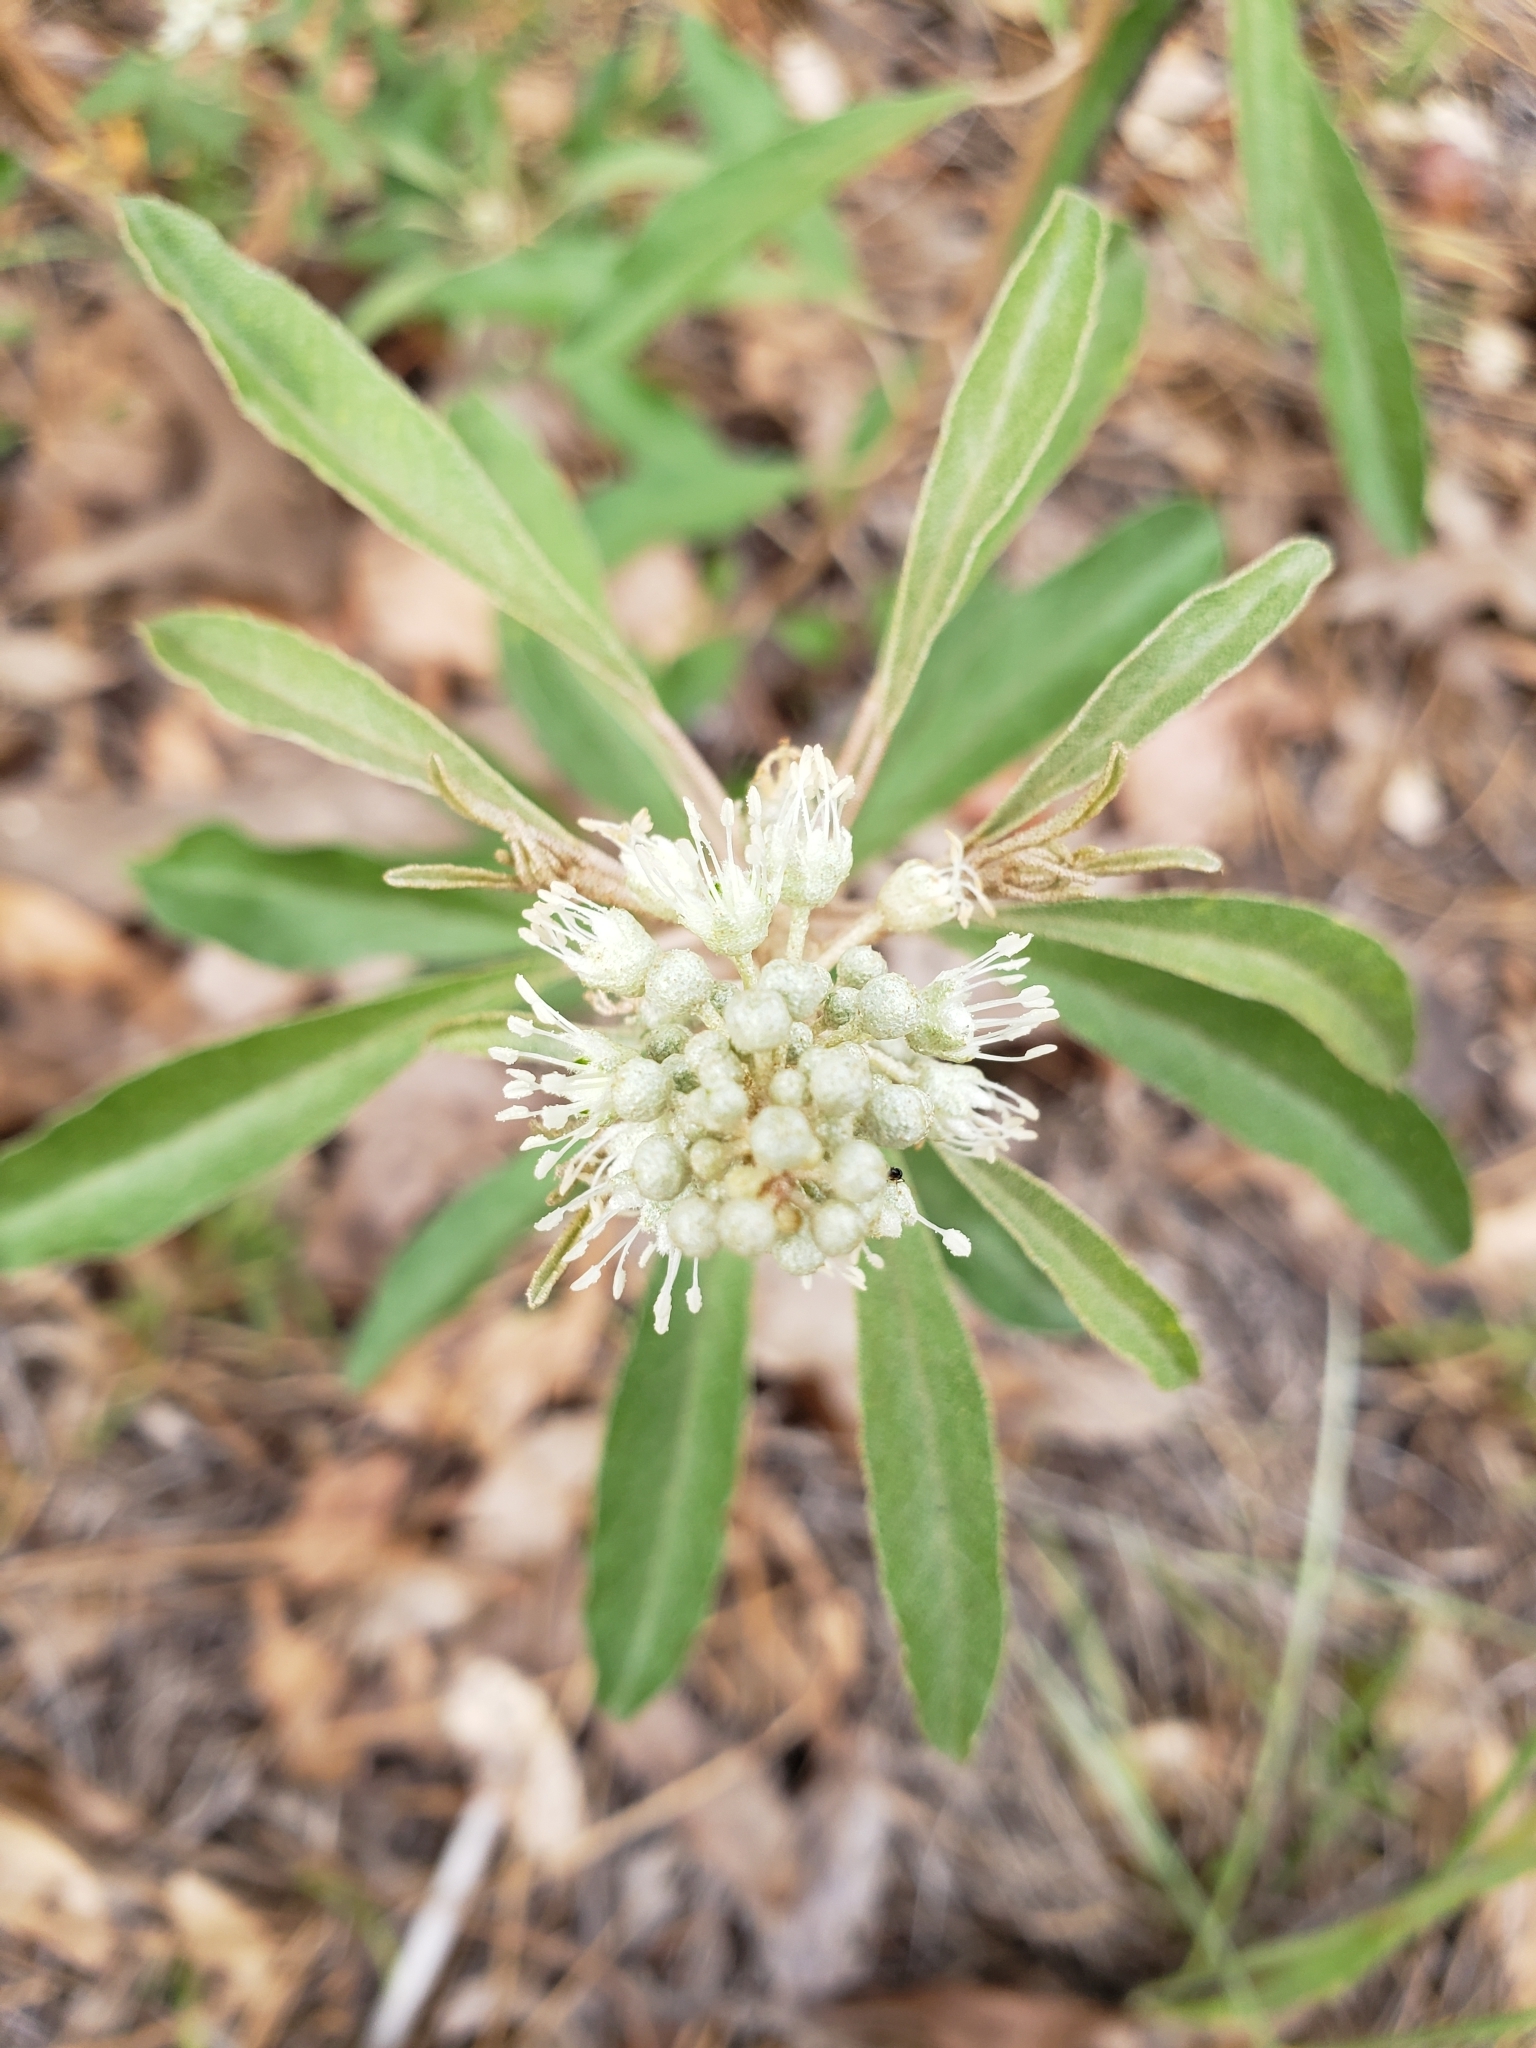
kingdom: Plantae
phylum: Tracheophyta
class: Magnoliopsida
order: Malpighiales
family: Euphorbiaceae
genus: Croton
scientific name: Croton argyranthemus
